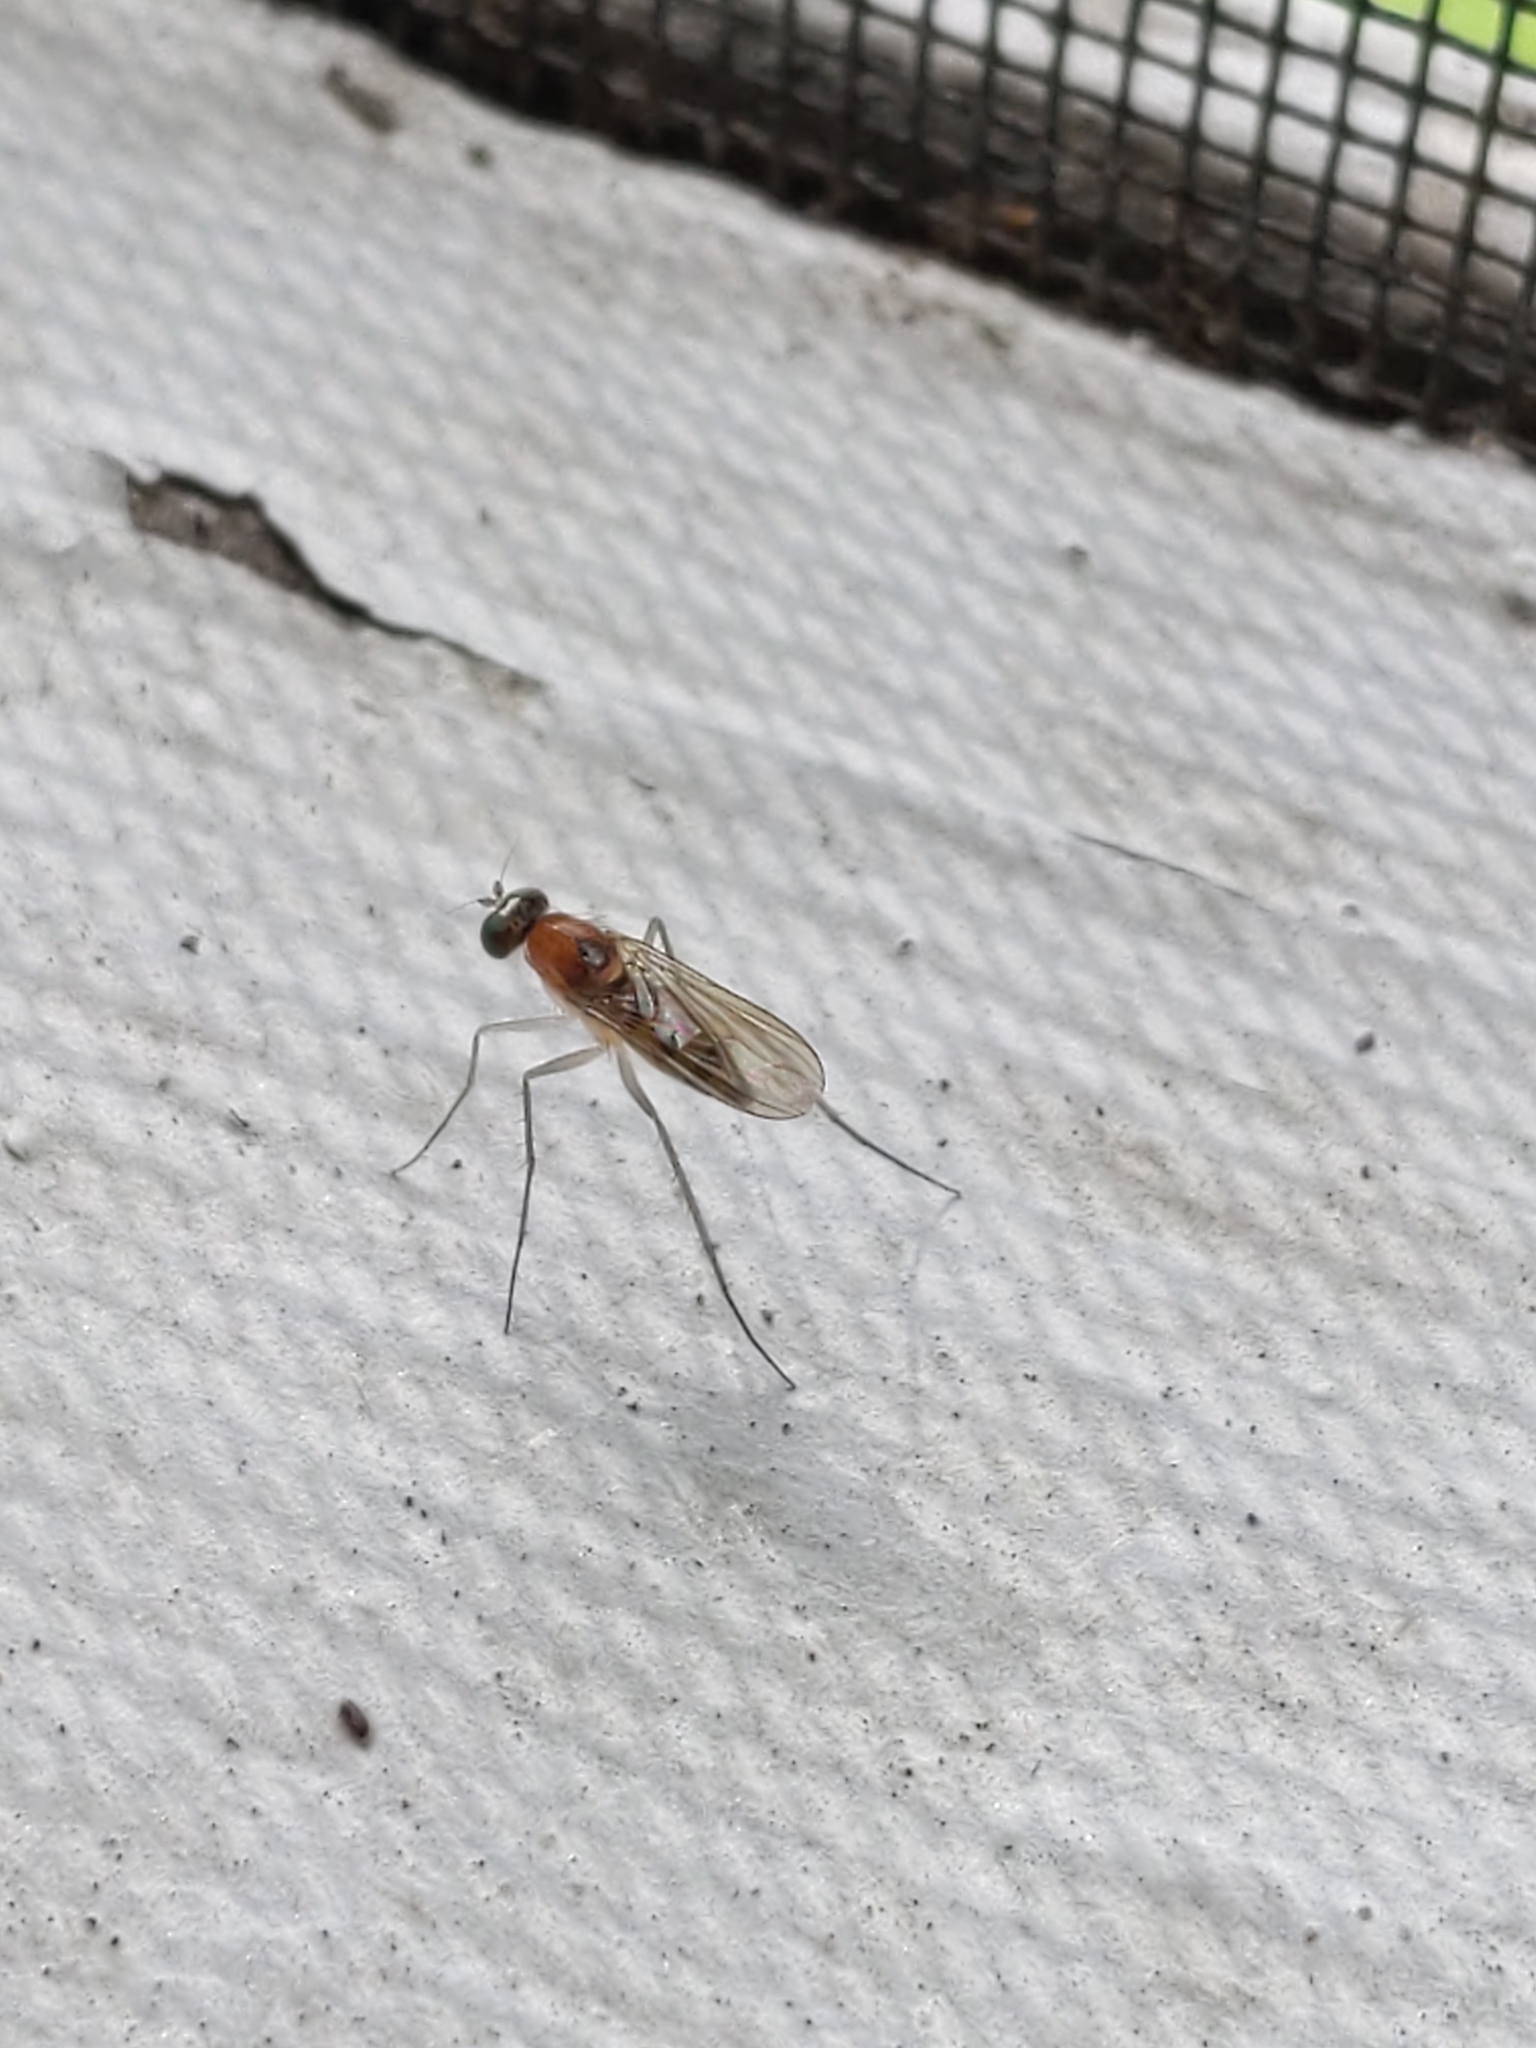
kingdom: Animalia
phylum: Arthropoda
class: Insecta
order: Diptera
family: Dolichopodidae
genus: Neurigona
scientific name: Neurigona rubella
